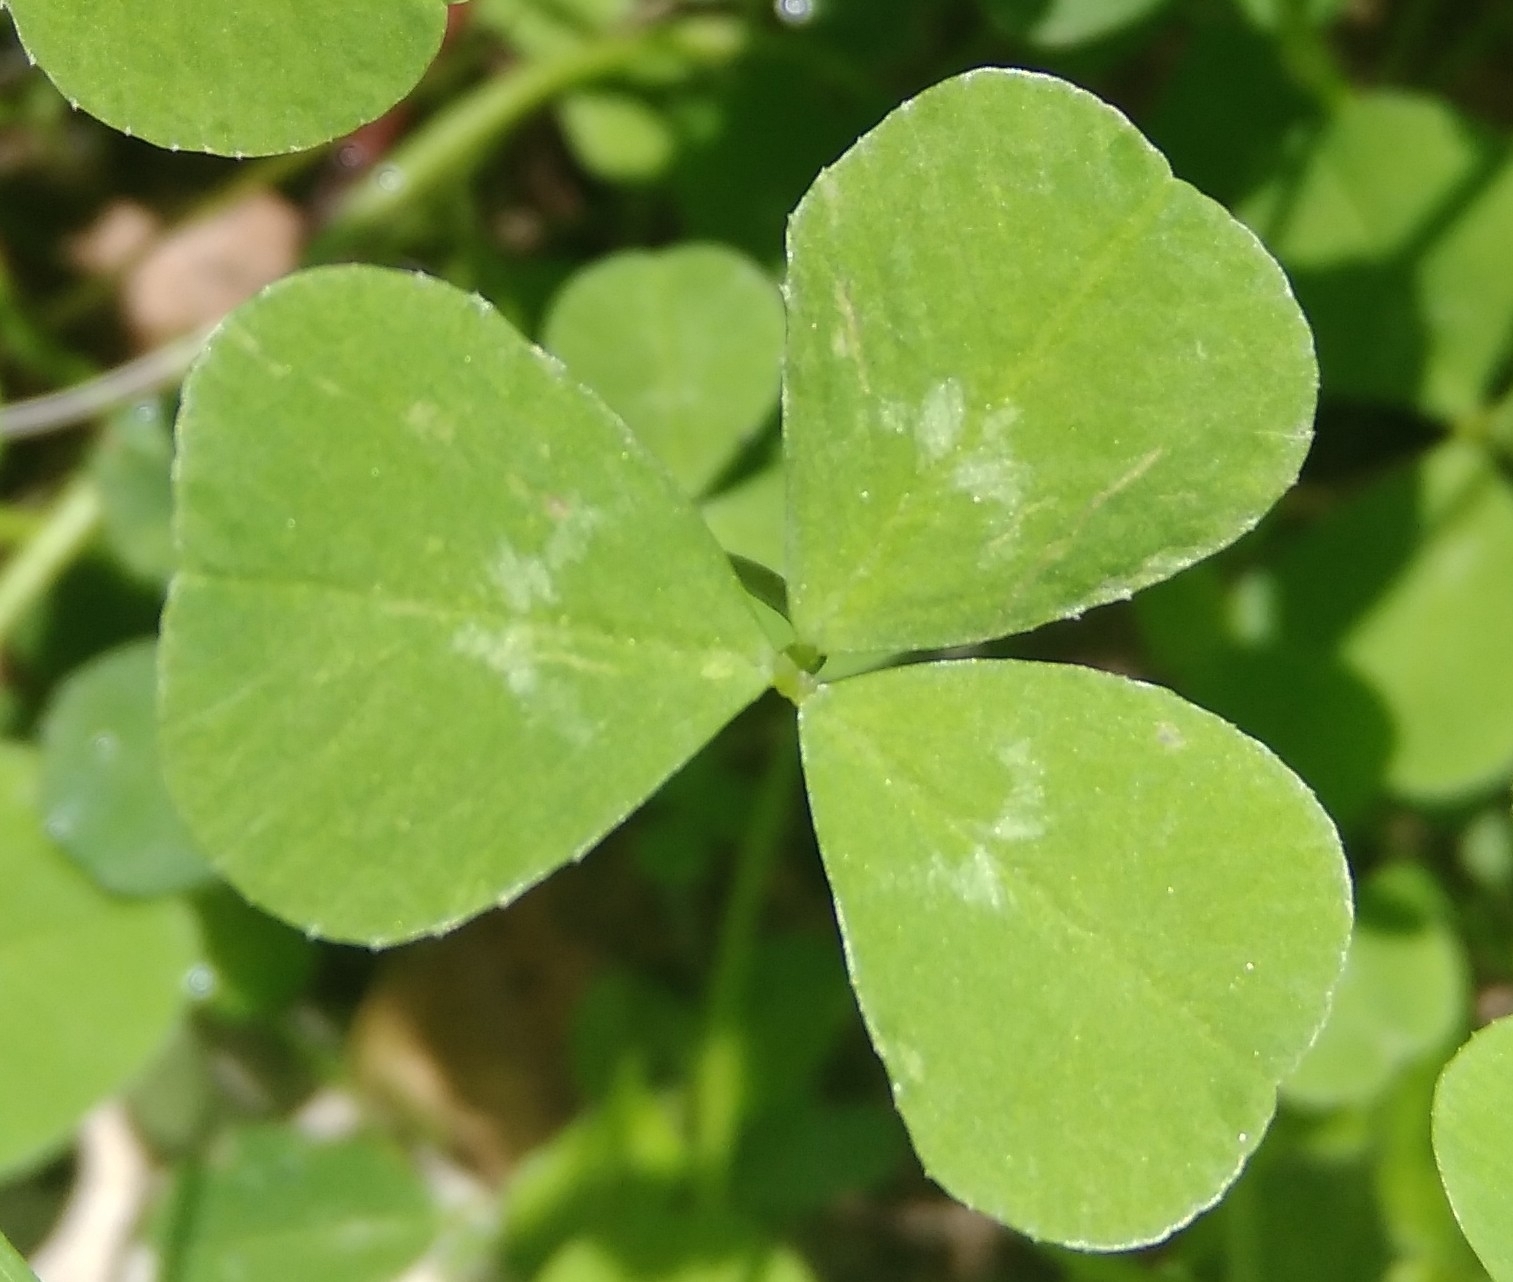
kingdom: Plantae
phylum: Tracheophyta
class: Magnoliopsida
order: Fabales
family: Fabaceae
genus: Trifolium
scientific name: Trifolium repens
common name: White clover
